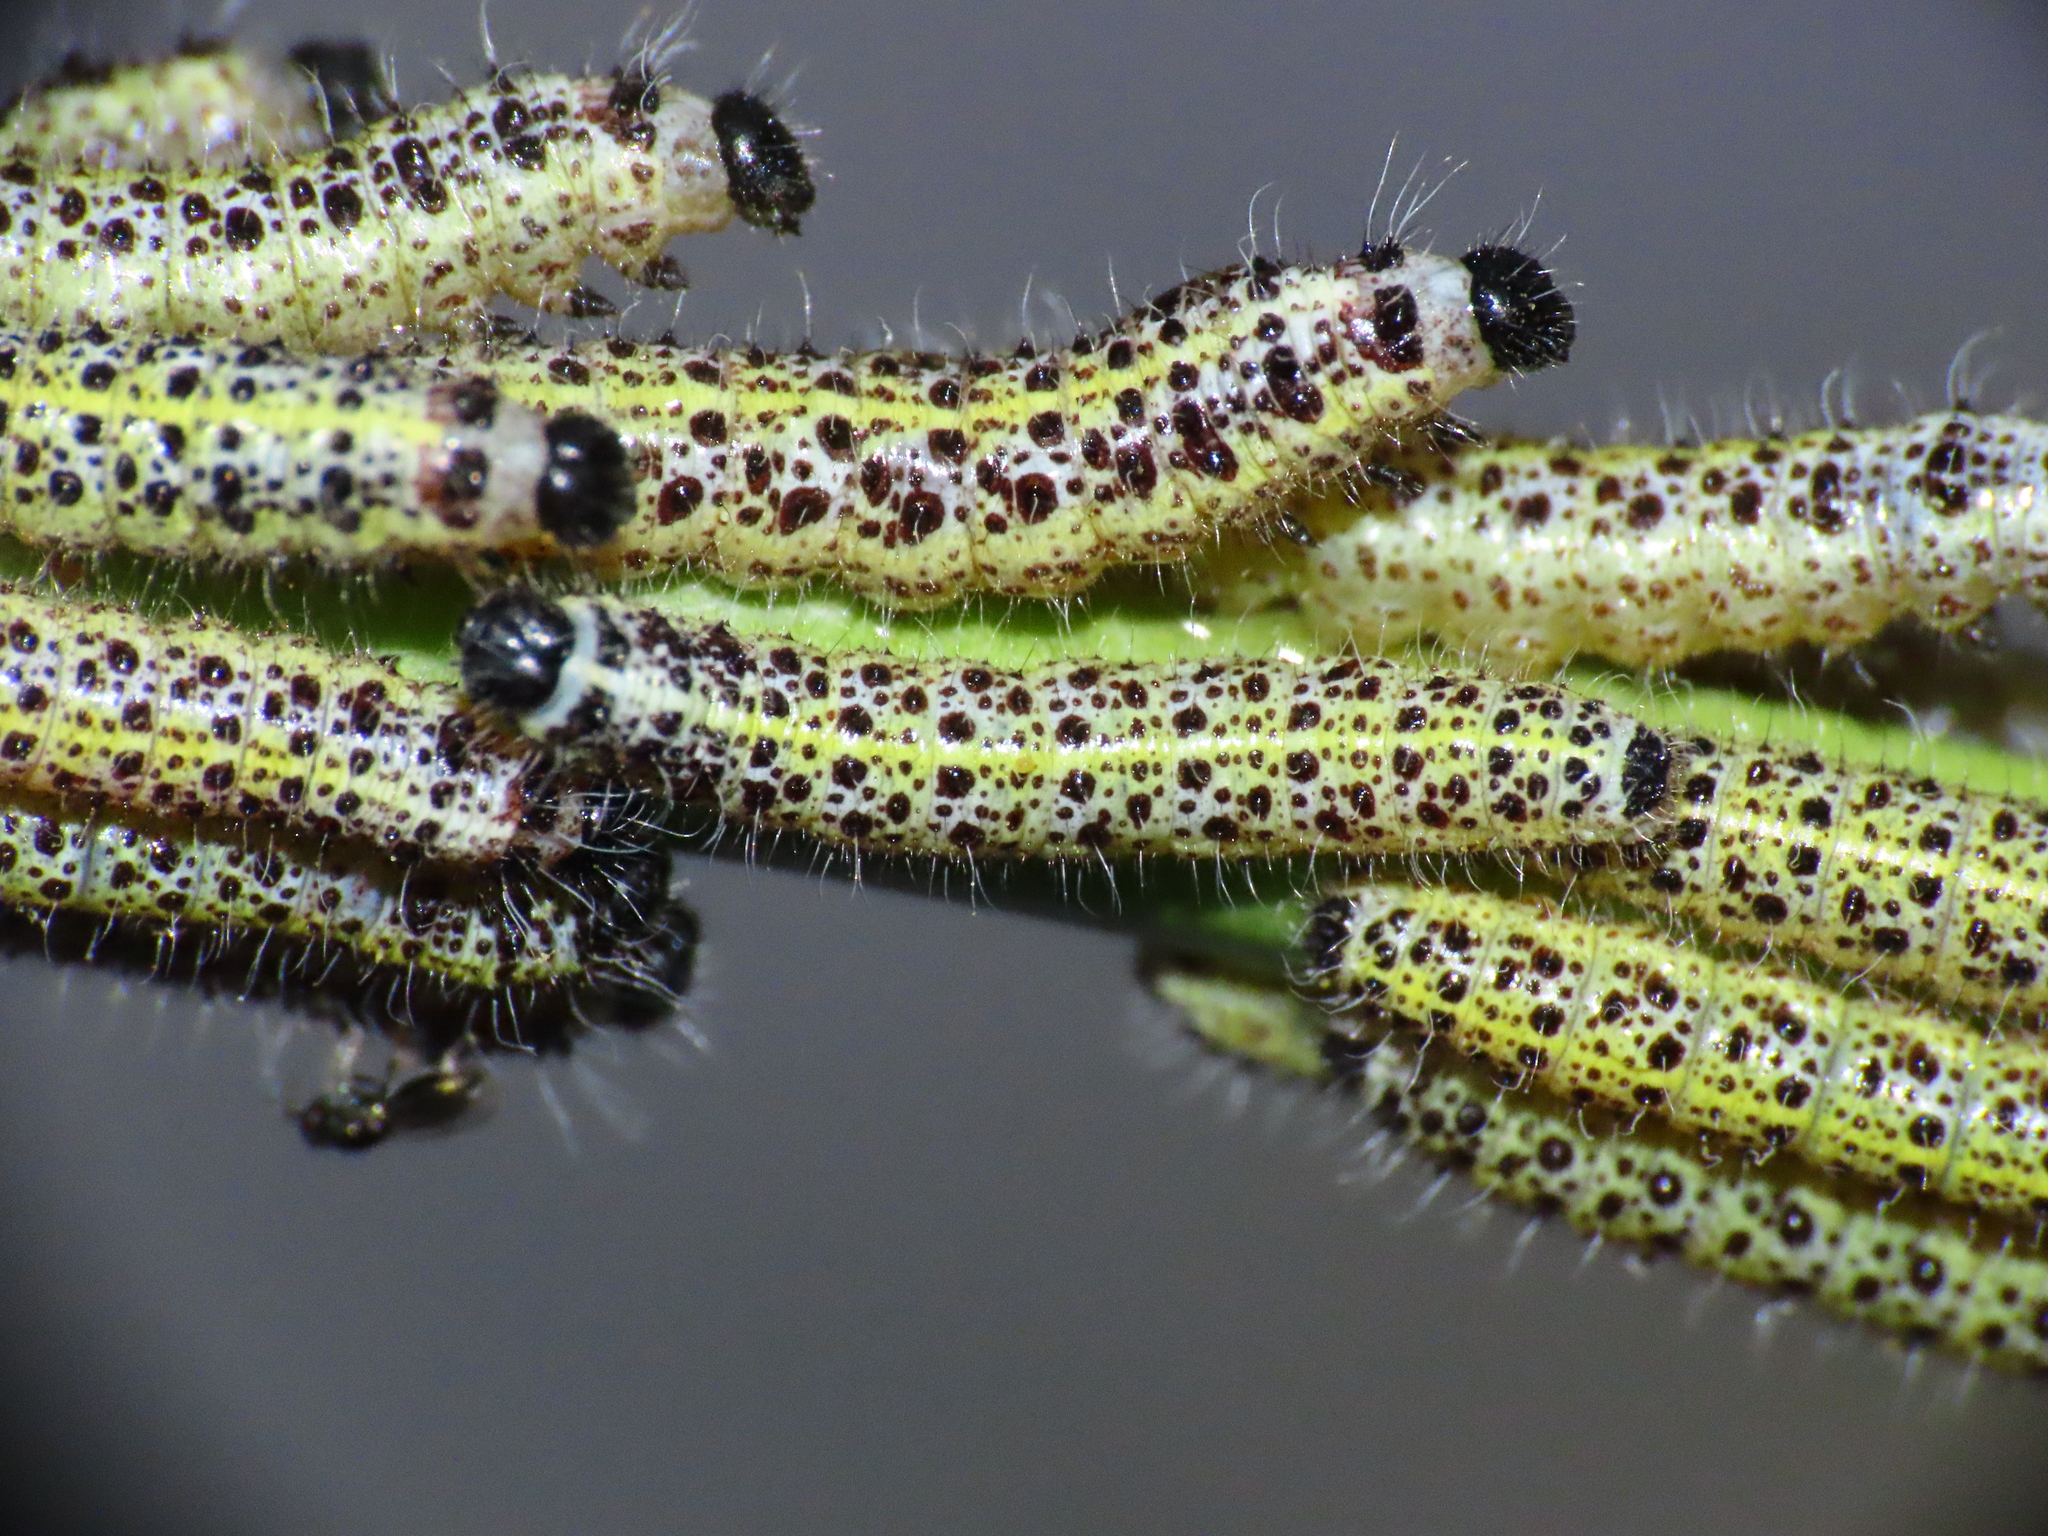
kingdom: Animalia
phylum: Arthropoda
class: Insecta
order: Lepidoptera
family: Pieridae
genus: Pieris
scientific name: Pieris brassicae
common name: Large white
